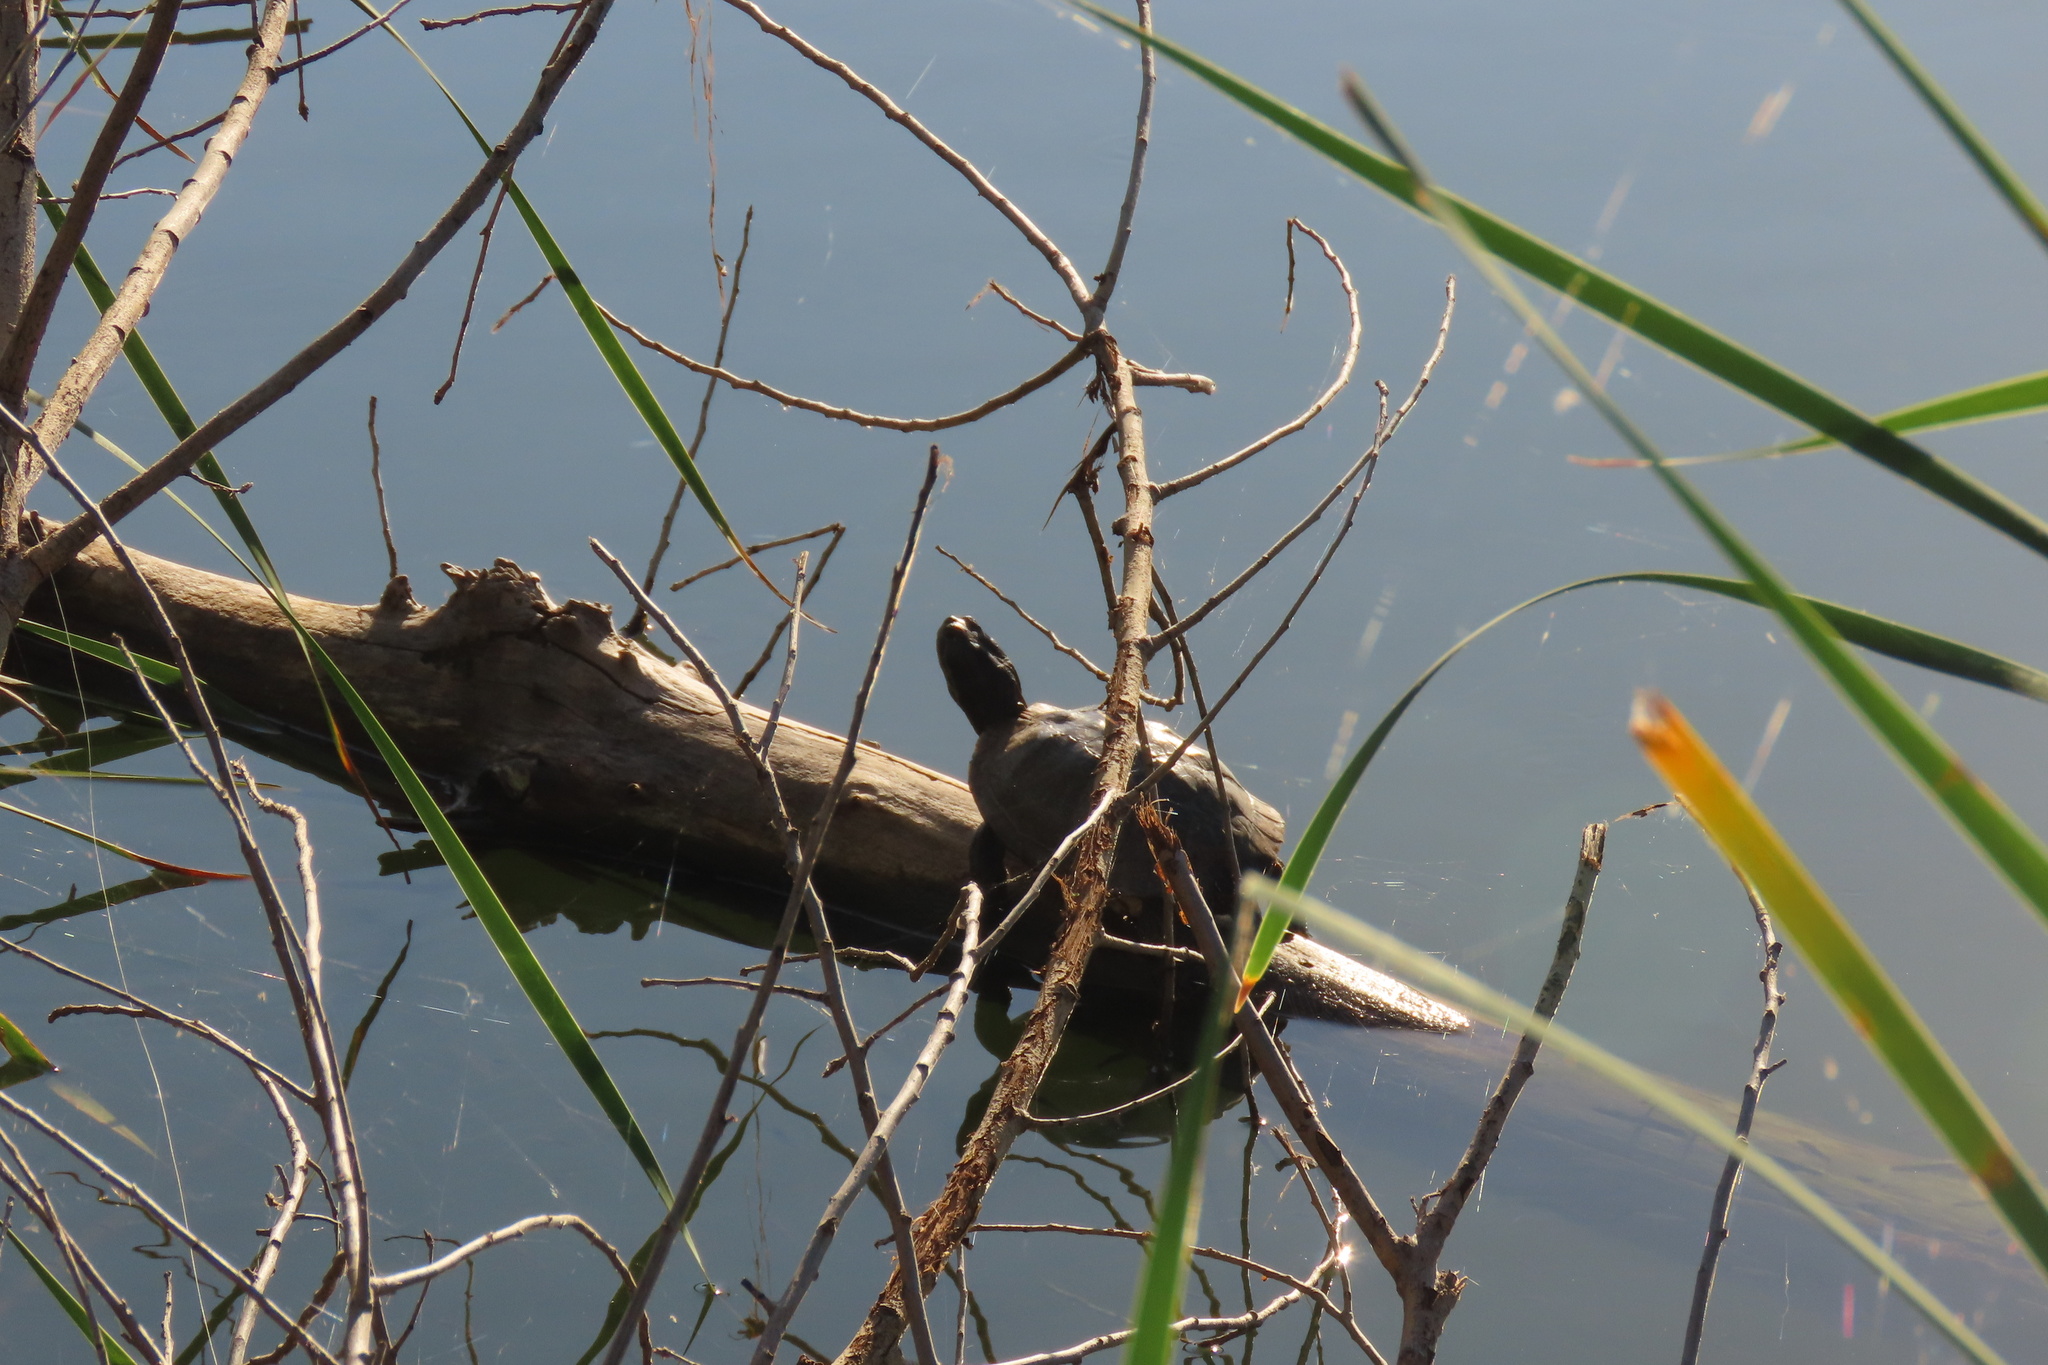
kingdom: Animalia
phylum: Chordata
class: Testudines
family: Emydidae
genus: Trachemys
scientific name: Trachemys scripta
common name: Slider
